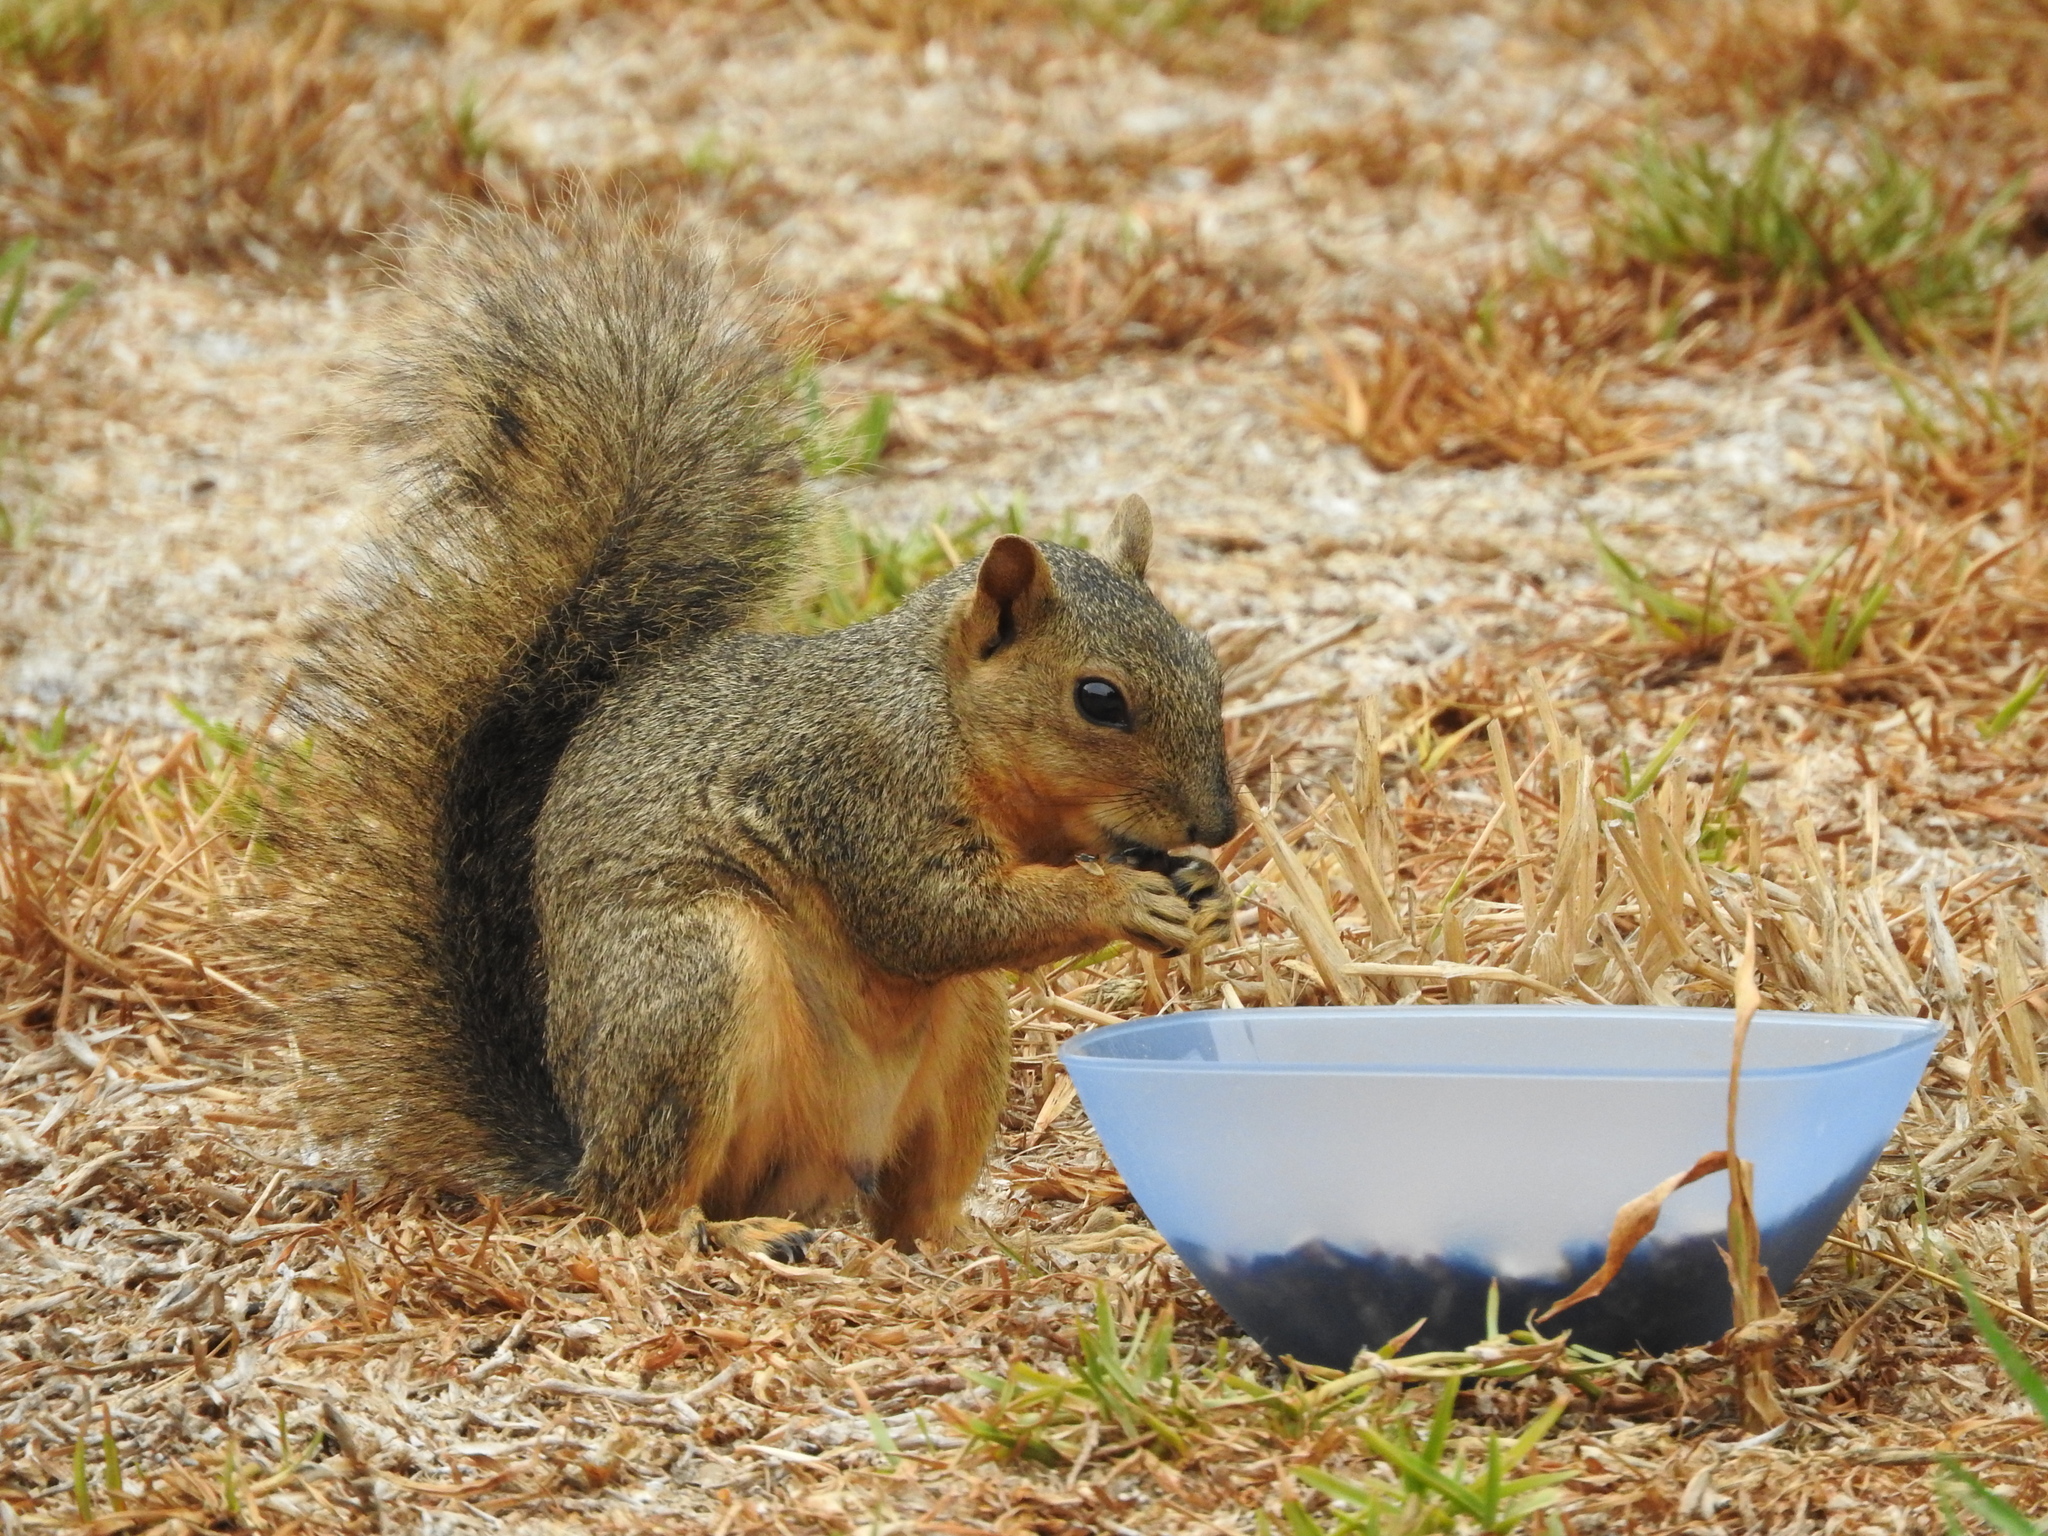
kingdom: Animalia
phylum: Chordata
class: Mammalia
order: Rodentia
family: Sciuridae
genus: Sciurus
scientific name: Sciurus niger
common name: Fox squirrel
